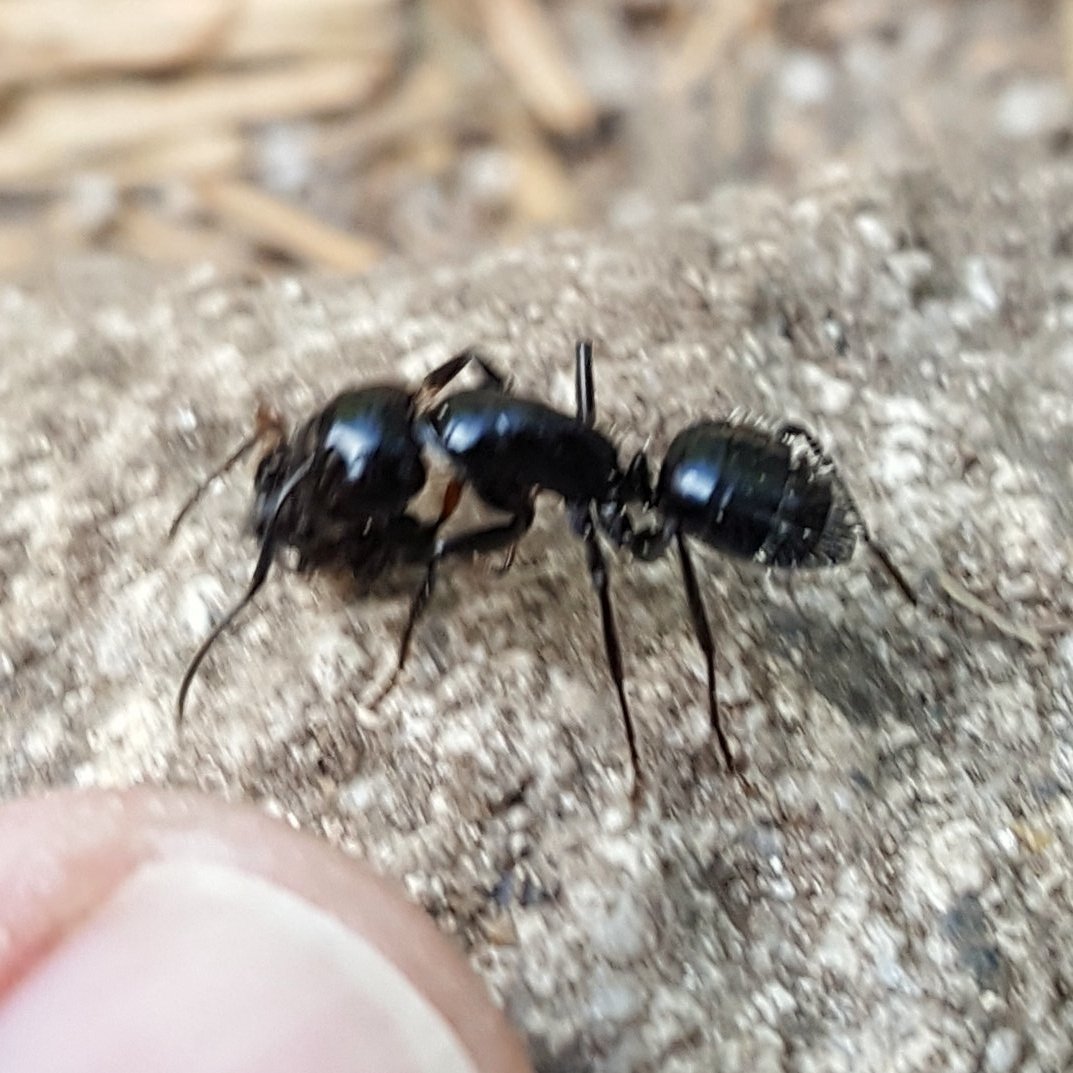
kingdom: Animalia
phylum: Arthropoda
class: Insecta
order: Hymenoptera
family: Formicidae
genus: Camponotus
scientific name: Camponotus
